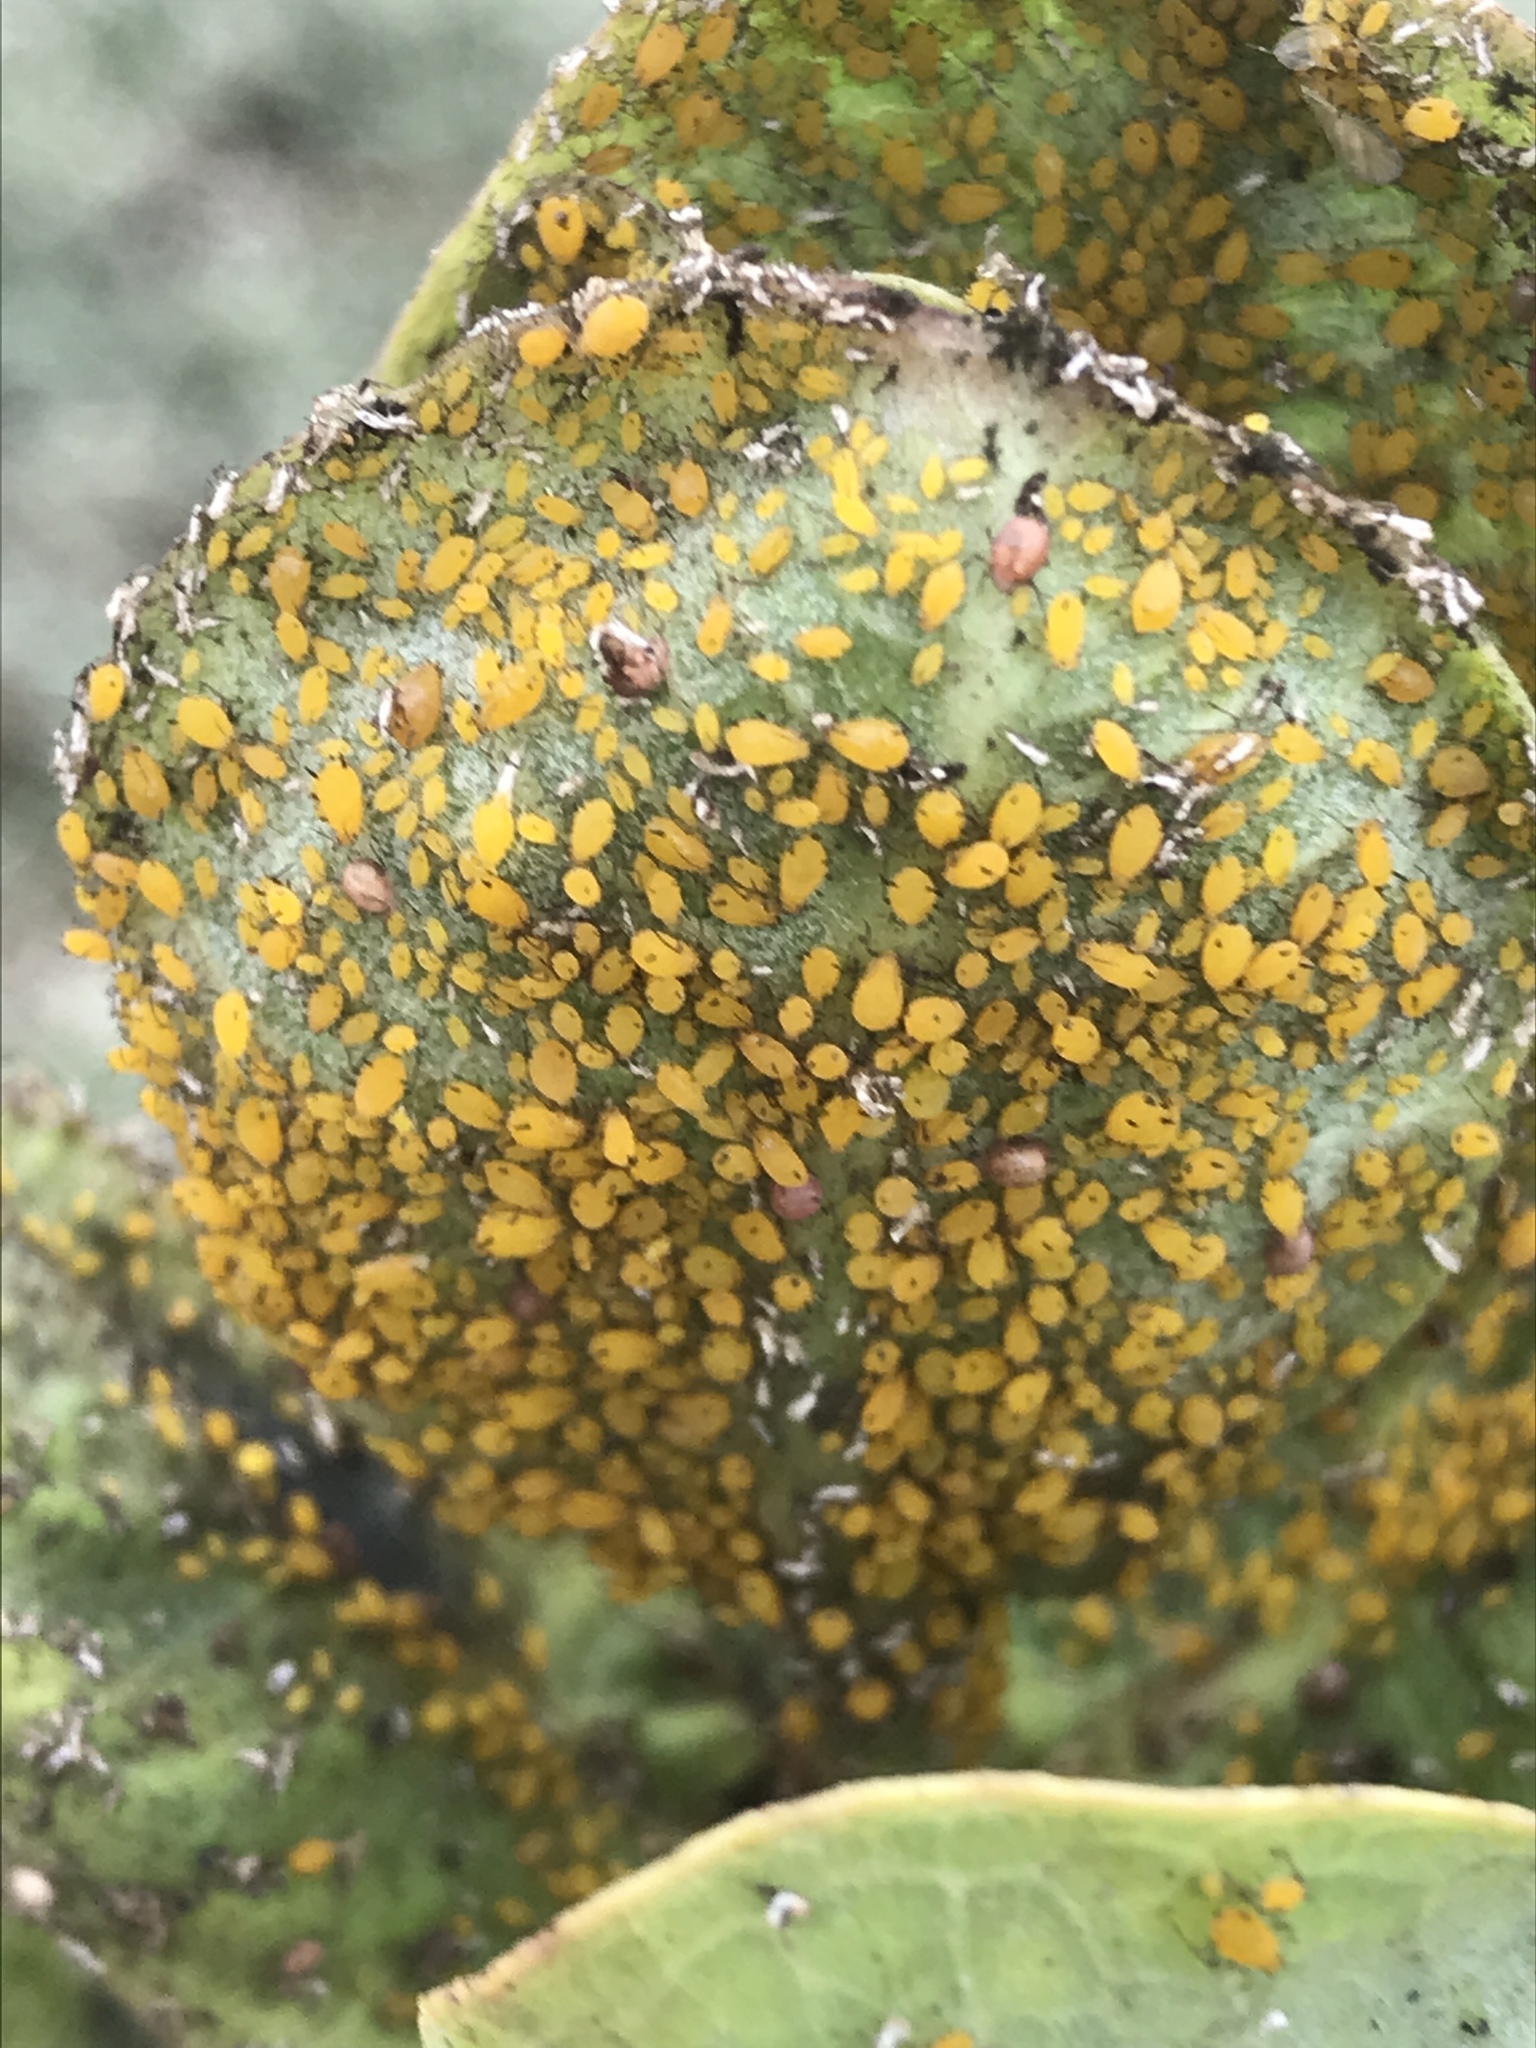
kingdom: Animalia
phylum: Arthropoda
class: Insecta
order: Hemiptera
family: Aphididae
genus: Aphis
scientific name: Aphis nerii
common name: Oleander aphid
